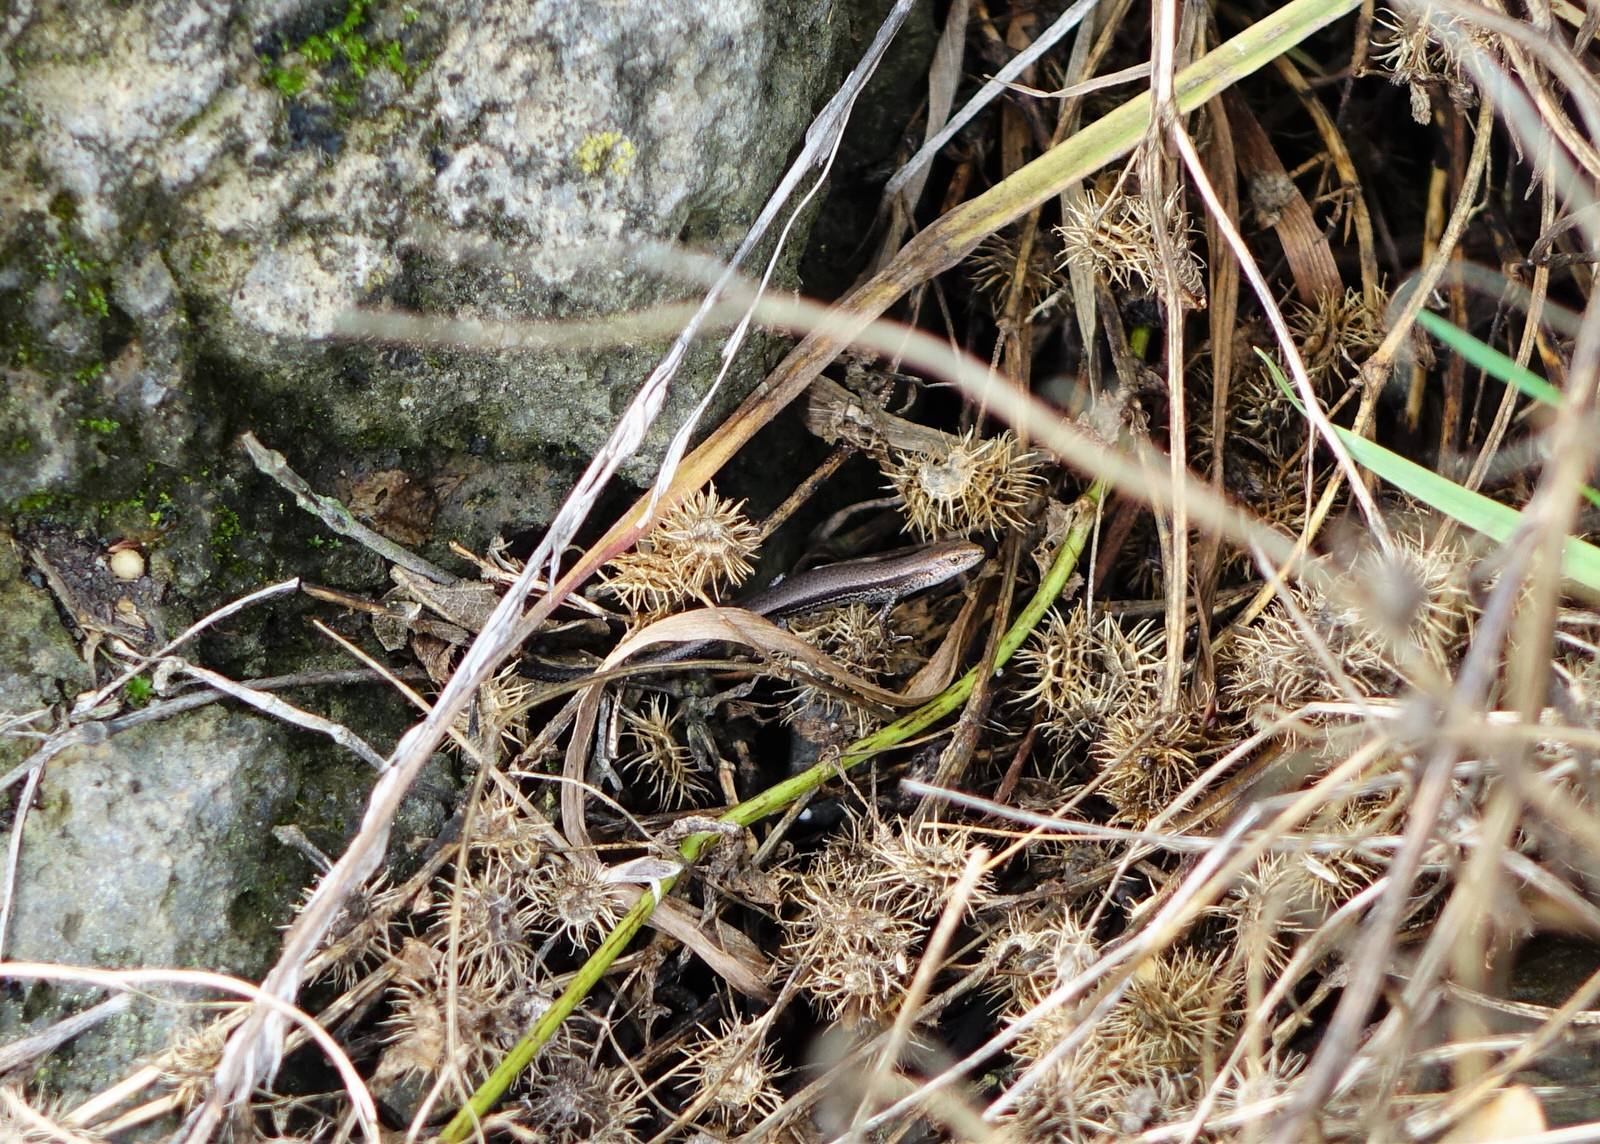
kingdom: Animalia
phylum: Chordata
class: Squamata
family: Scincidae
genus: Lampropholis
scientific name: Lampropholis delicata
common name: Plague skink
